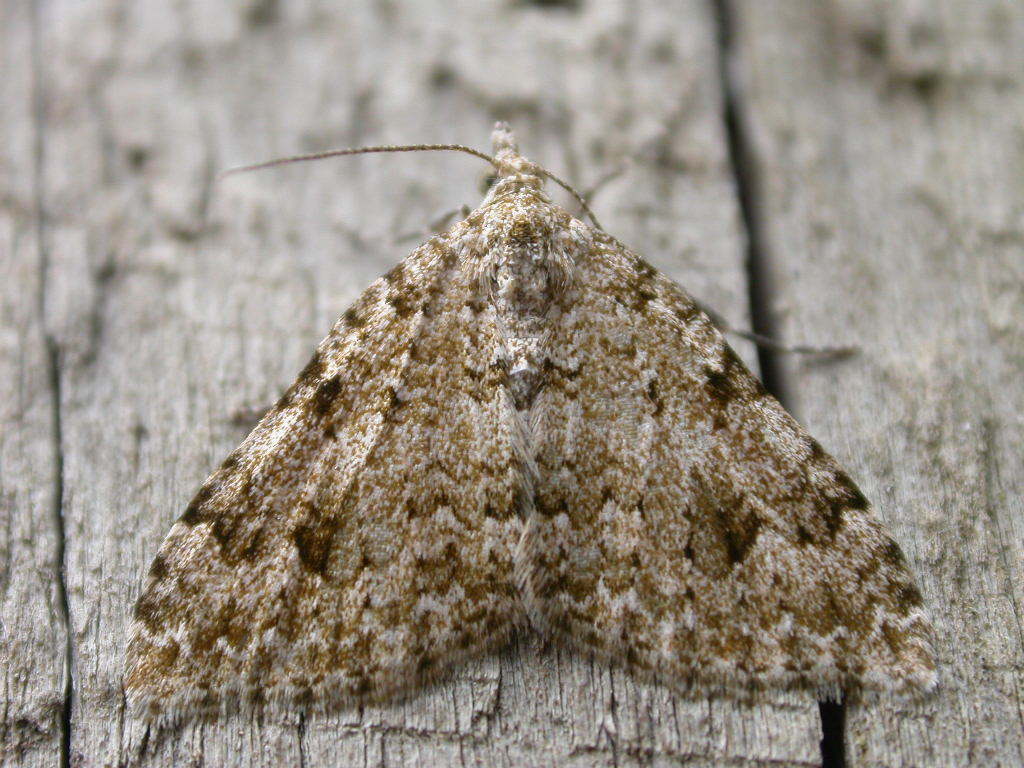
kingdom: Animalia
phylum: Arthropoda
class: Insecta
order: Lepidoptera
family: Geometridae
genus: Helastia
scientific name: Helastia cinerearia
